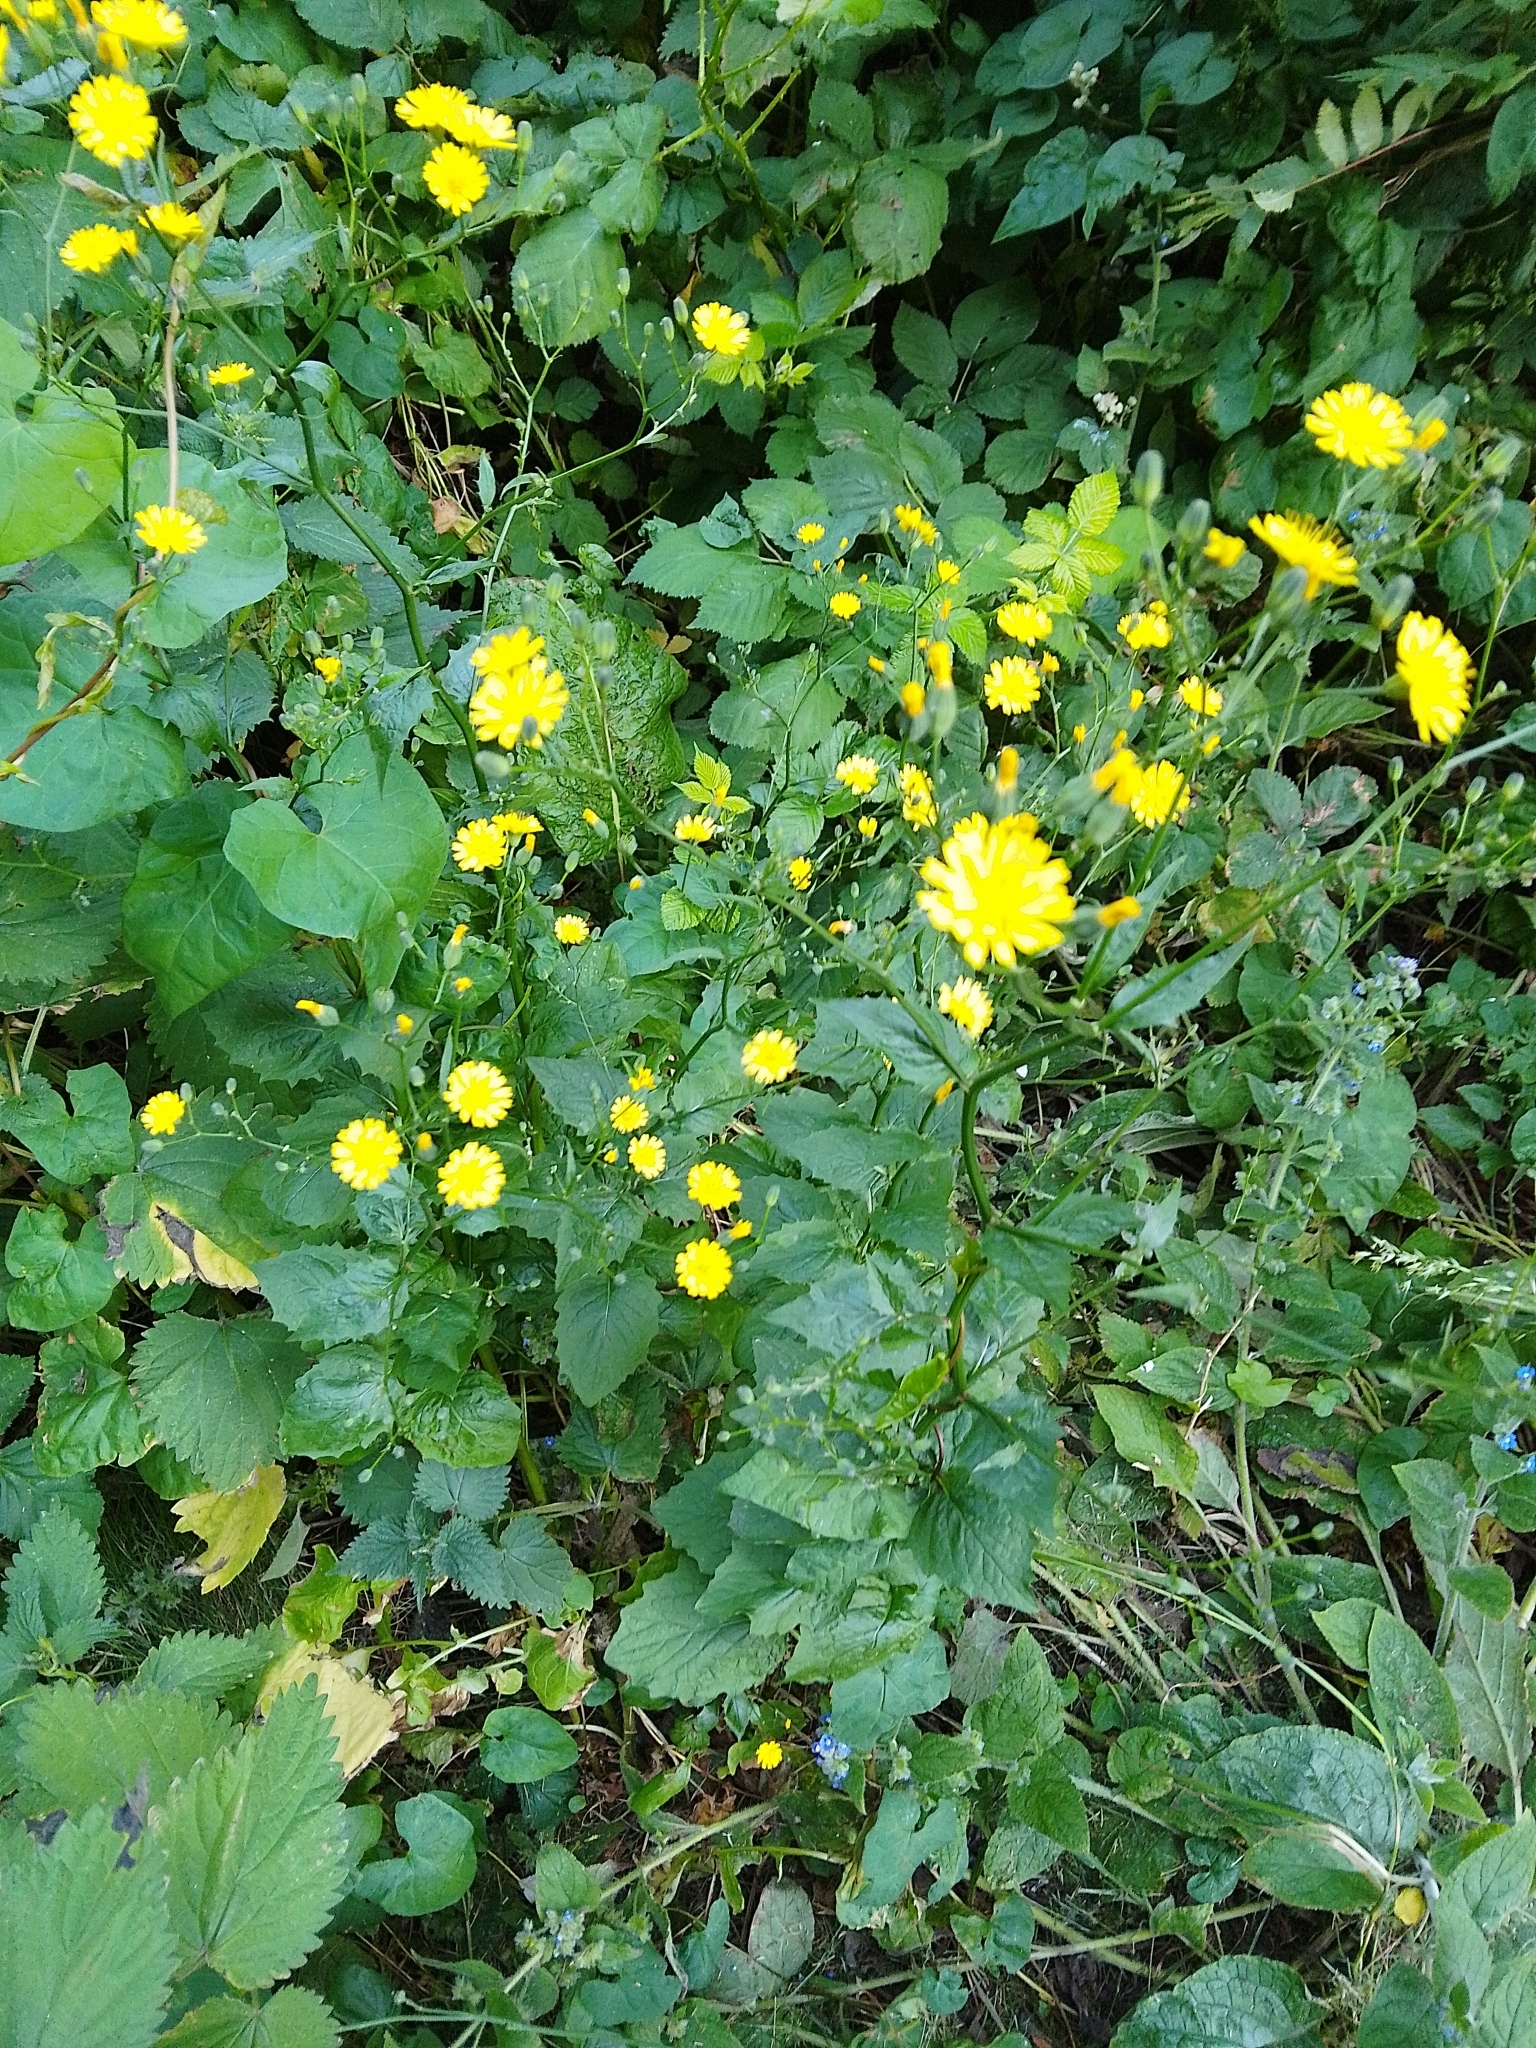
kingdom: Plantae
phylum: Tracheophyta
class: Magnoliopsida
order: Asterales
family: Asteraceae
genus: Lapsana
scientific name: Lapsana communis
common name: Nipplewort
